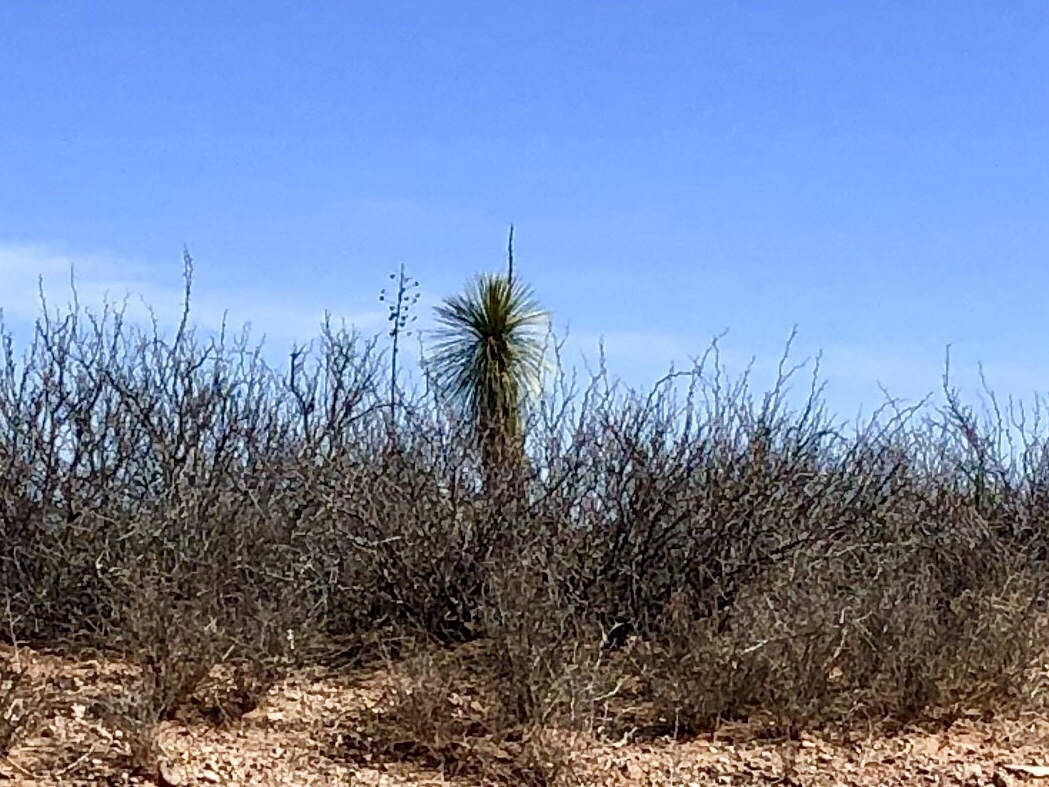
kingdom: Plantae
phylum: Tracheophyta
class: Liliopsida
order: Asparagales
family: Asparagaceae
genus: Yucca
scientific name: Yucca elata
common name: Palmella
